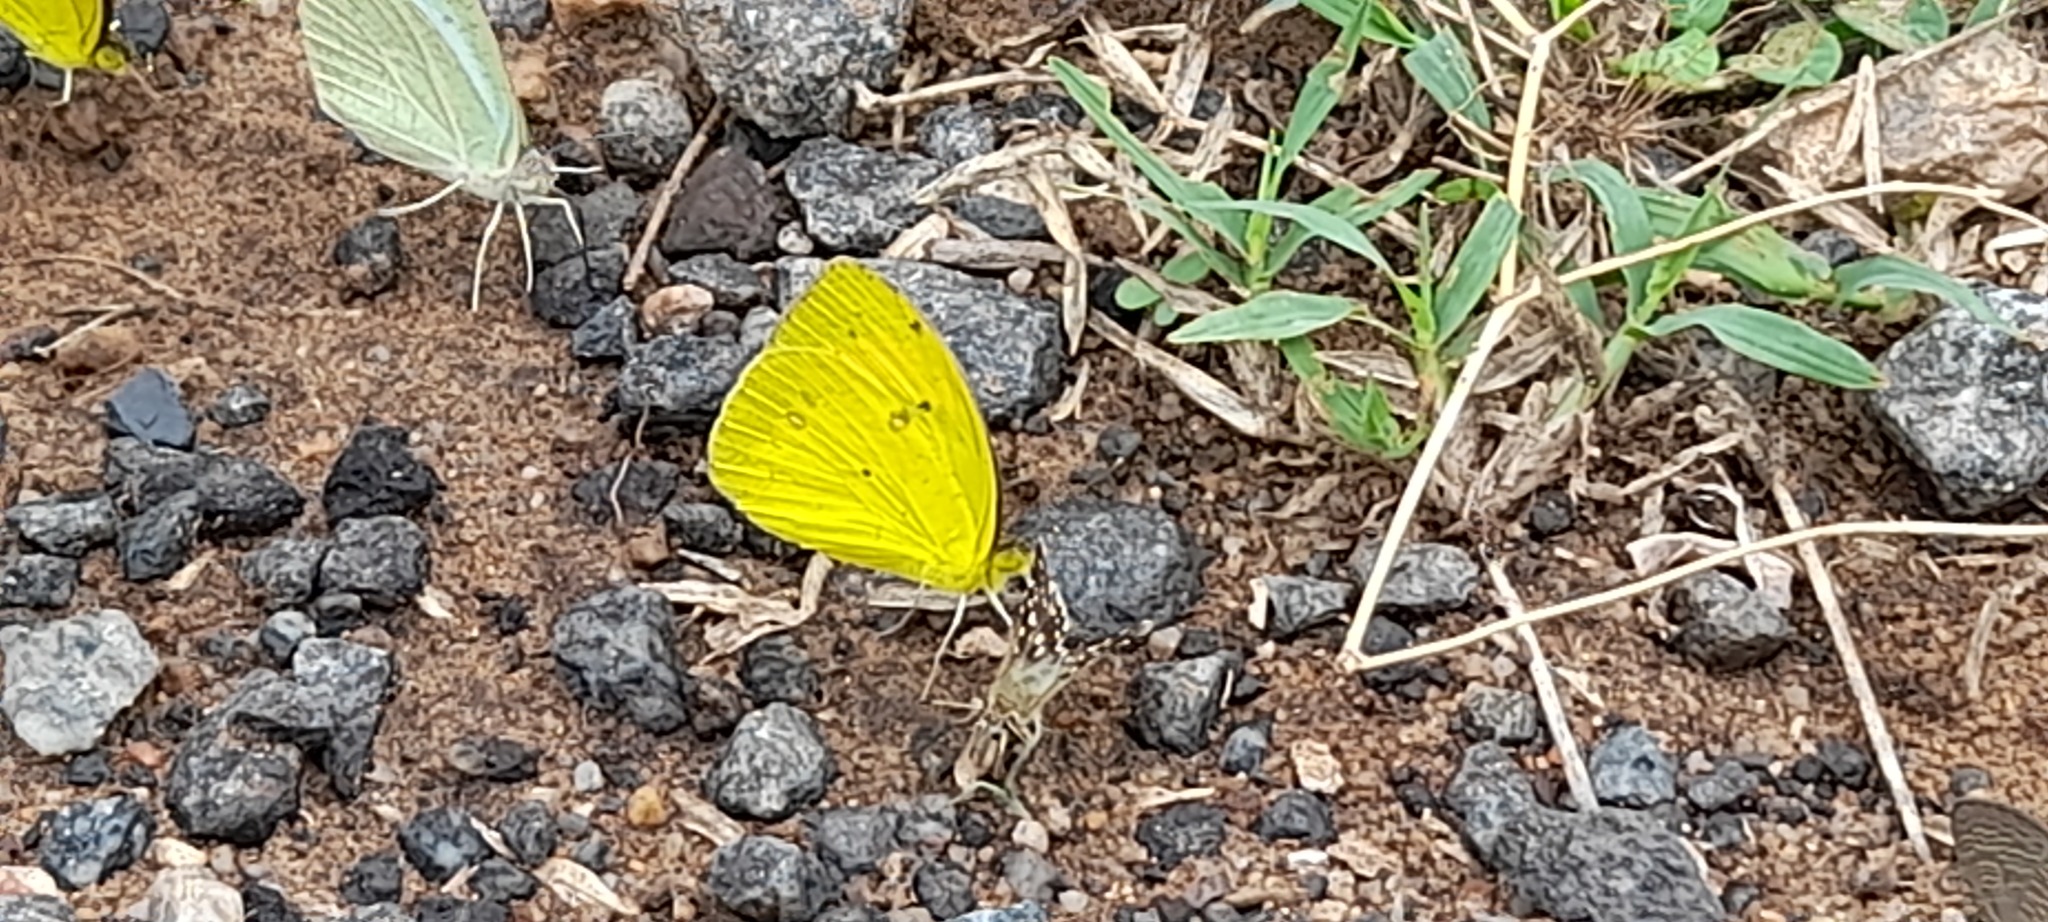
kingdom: Animalia
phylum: Arthropoda
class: Insecta
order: Lepidoptera
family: Pieridae
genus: Ixias
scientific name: Ixias pyrene
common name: Yellow orange tip
